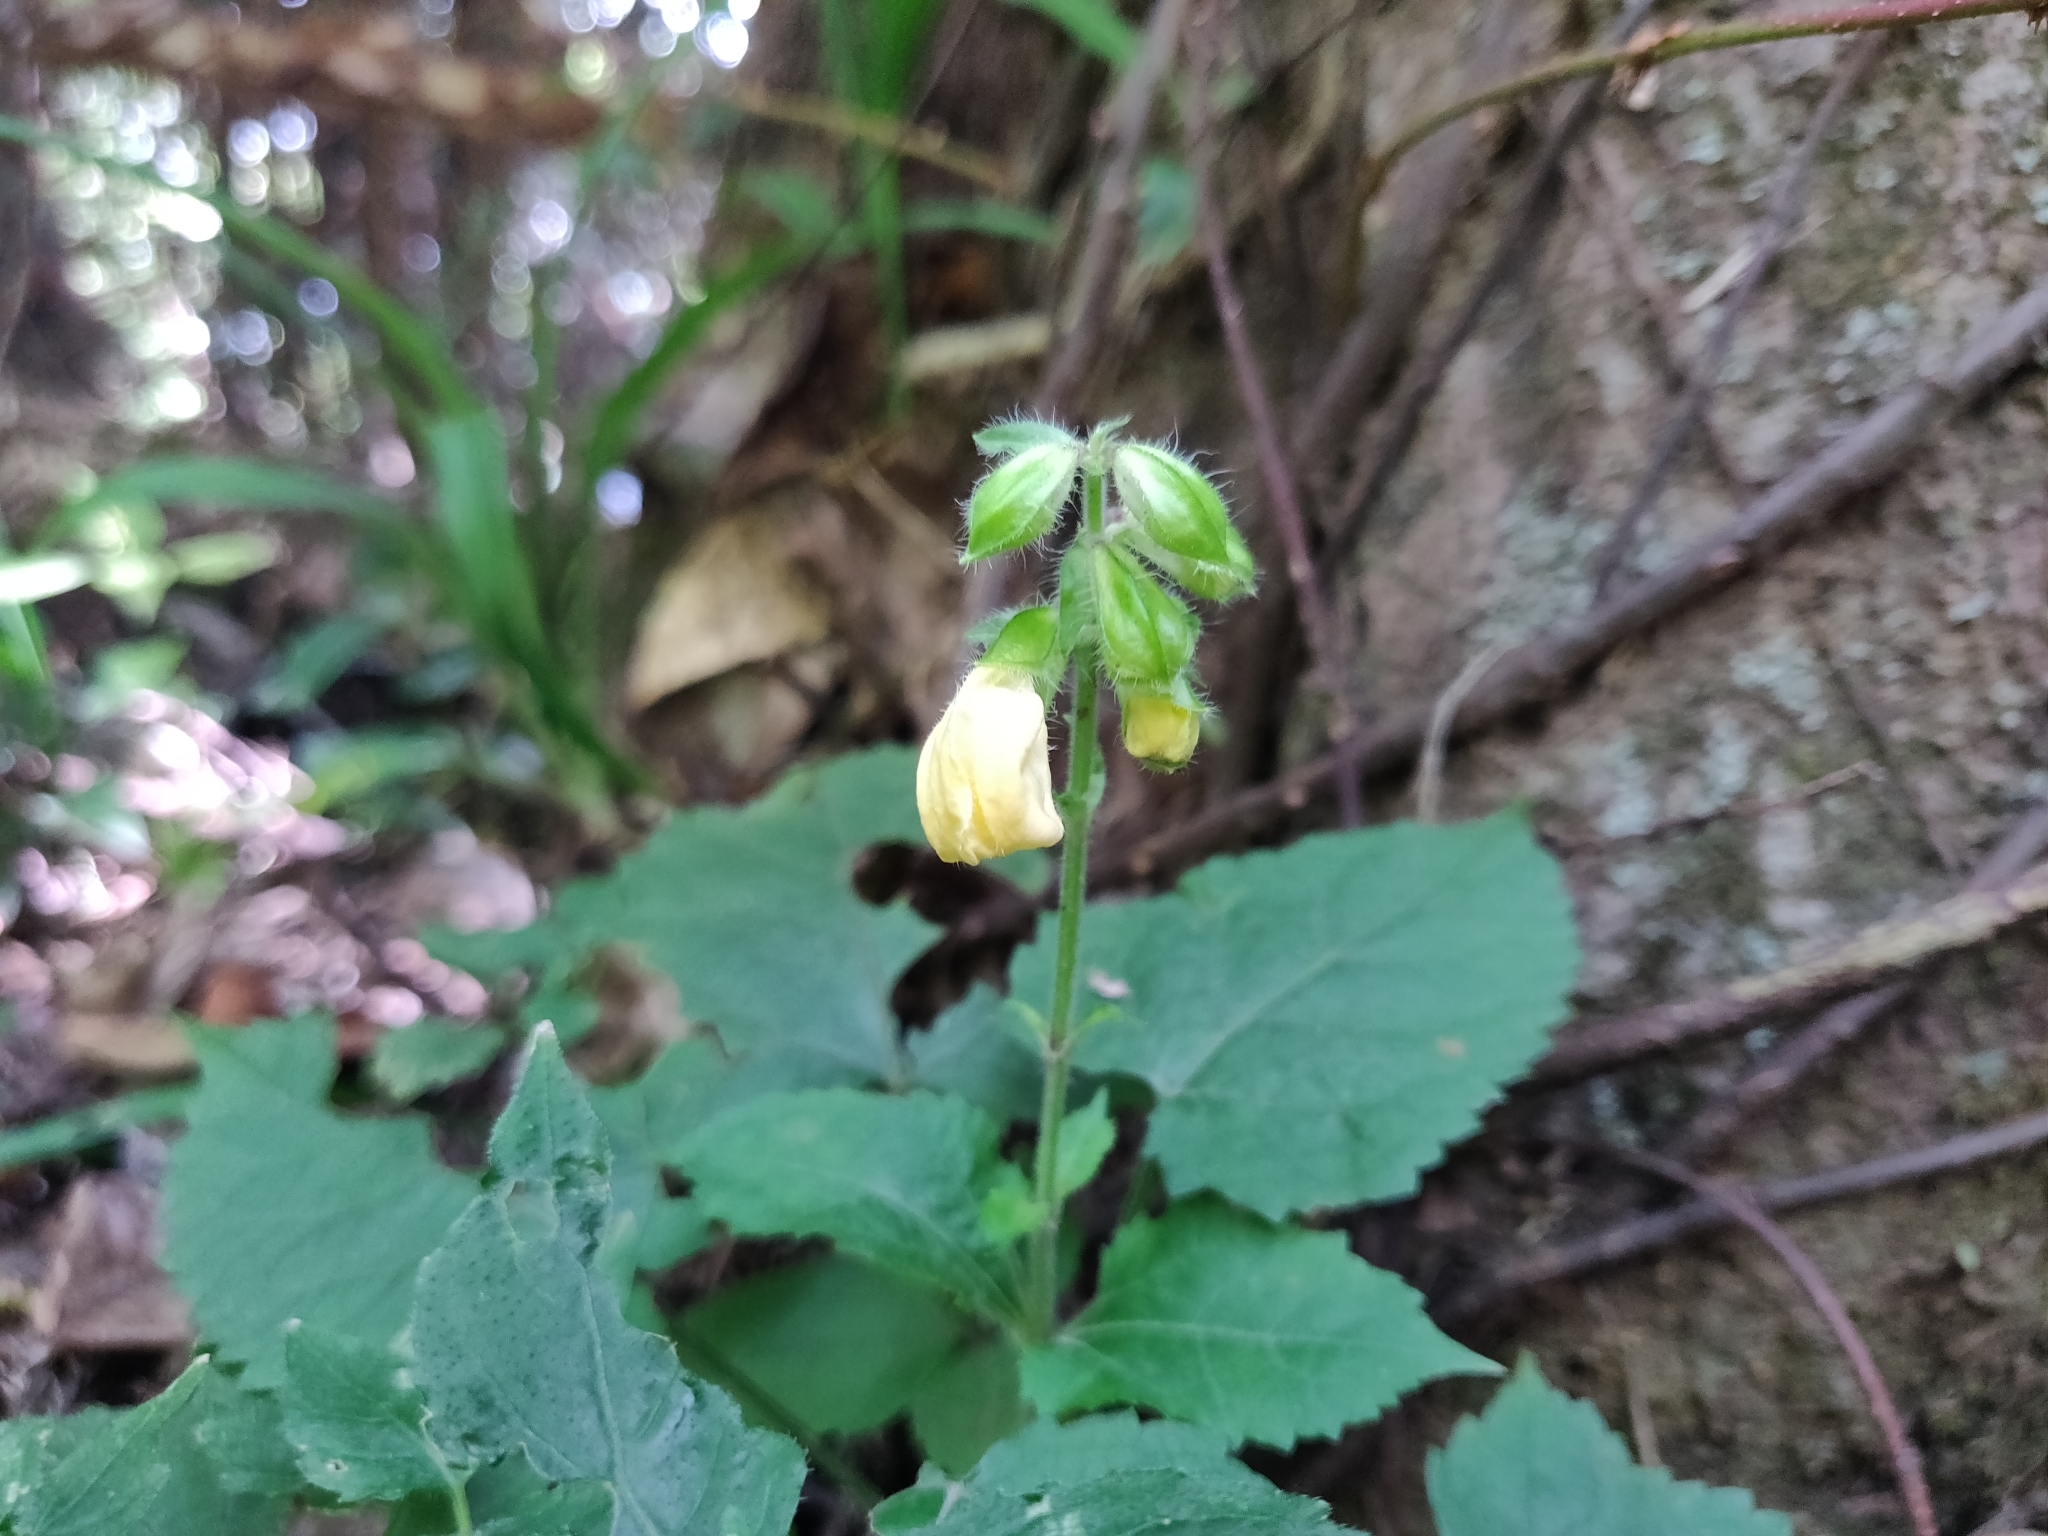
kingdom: Plantae
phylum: Tracheophyta
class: Magnoliopsida
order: Lamiales
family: Lamiaceae
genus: Salvia
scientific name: Salvia nipponica
